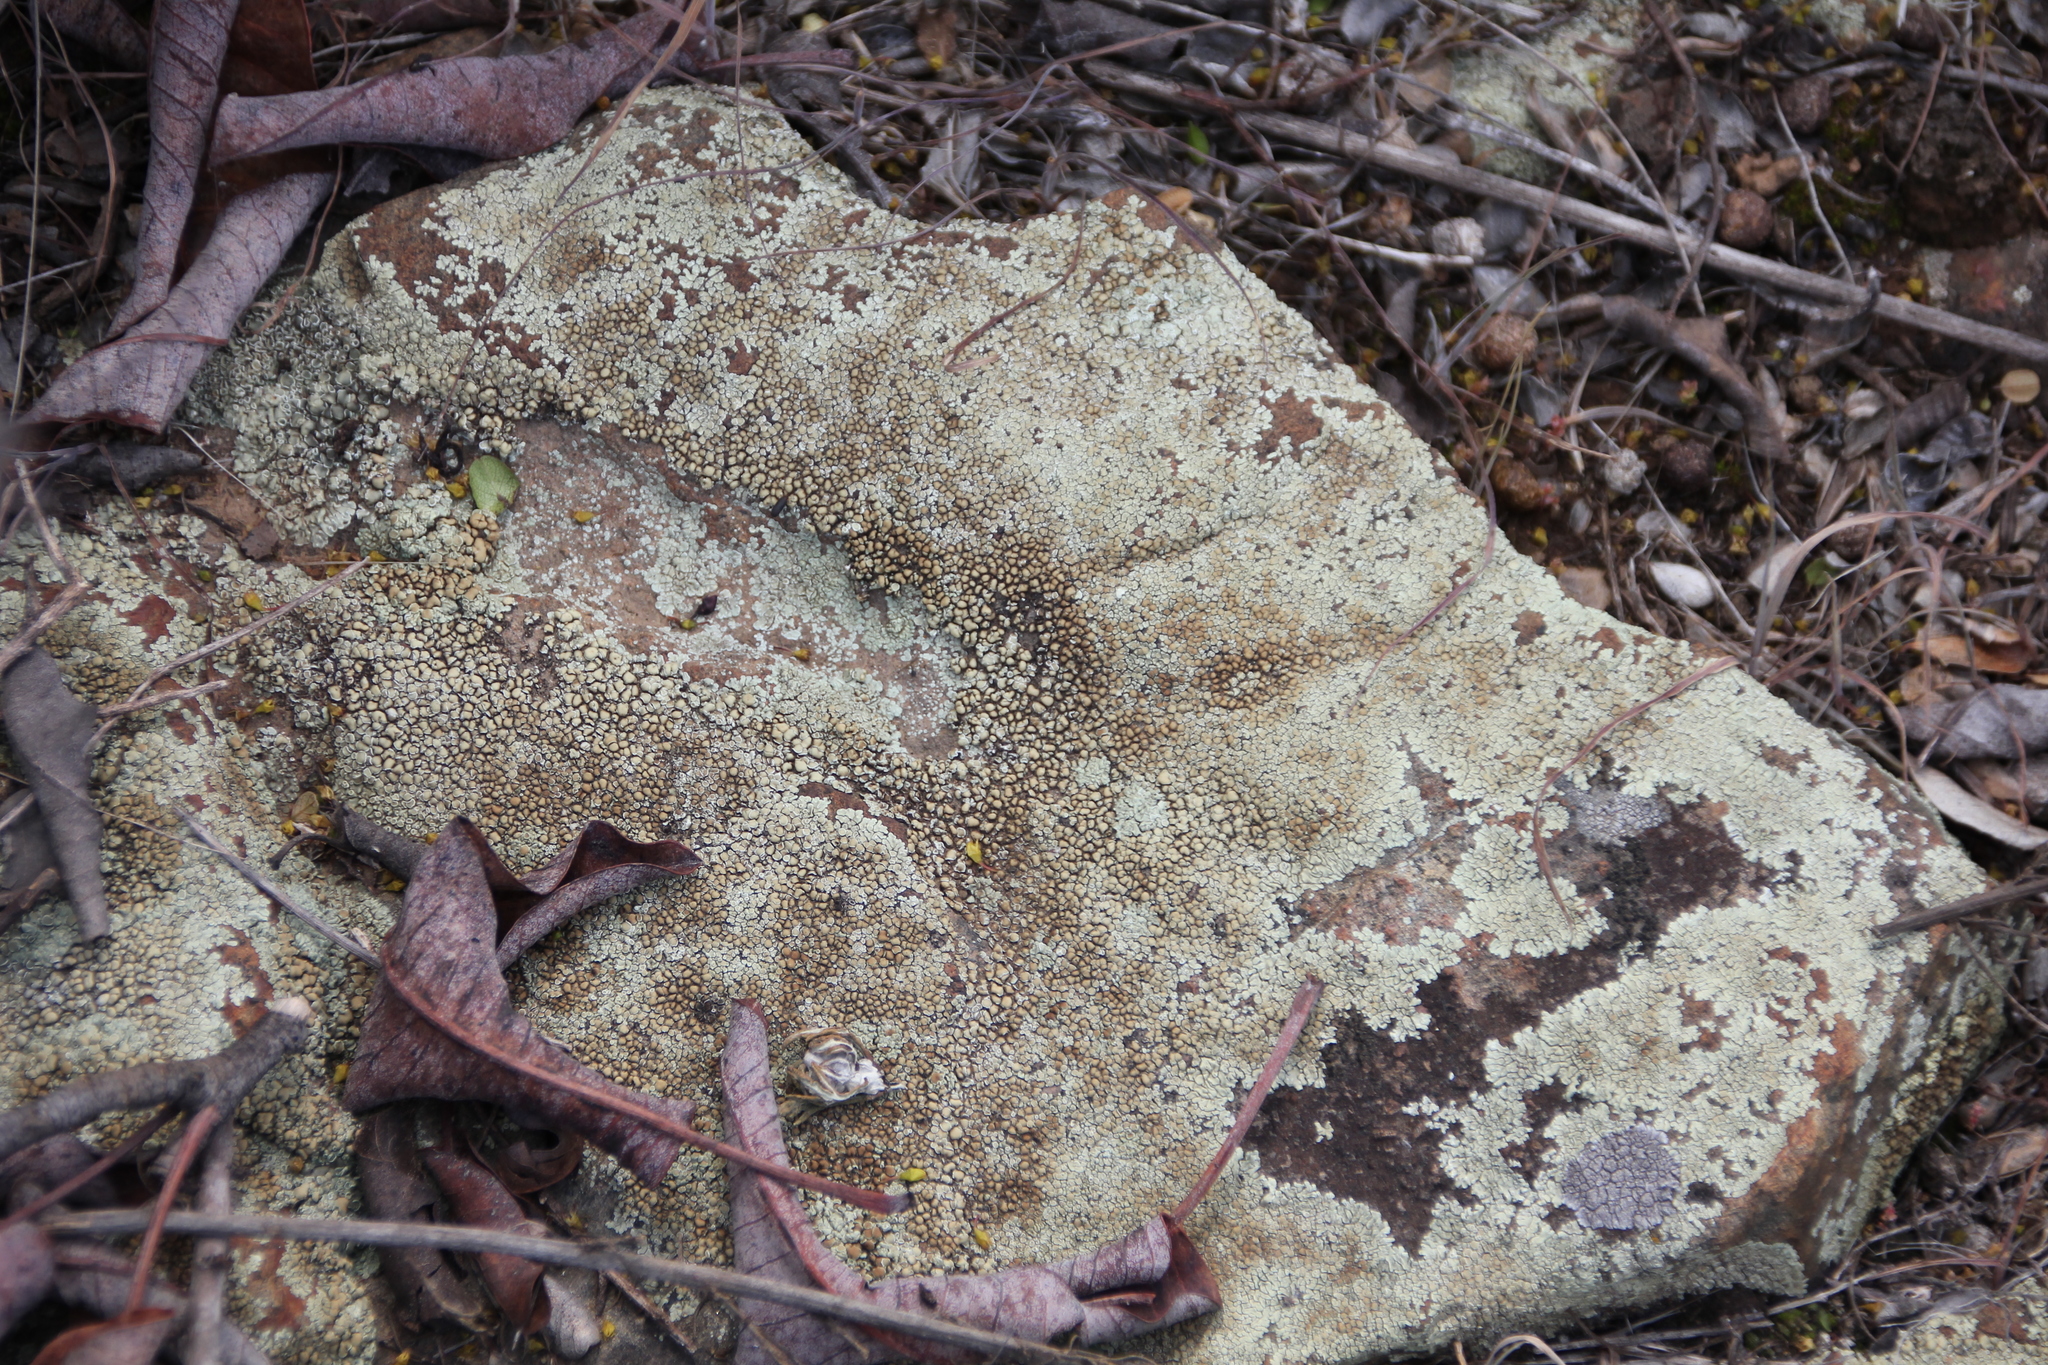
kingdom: Fungi
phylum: Ascomycota
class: Lecanoromycetes
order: Lecanorales
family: Lecanoraceae
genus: Protoparmeliopsis
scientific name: Protoparmeliopsis muralis
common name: Stonewall rim lichen
